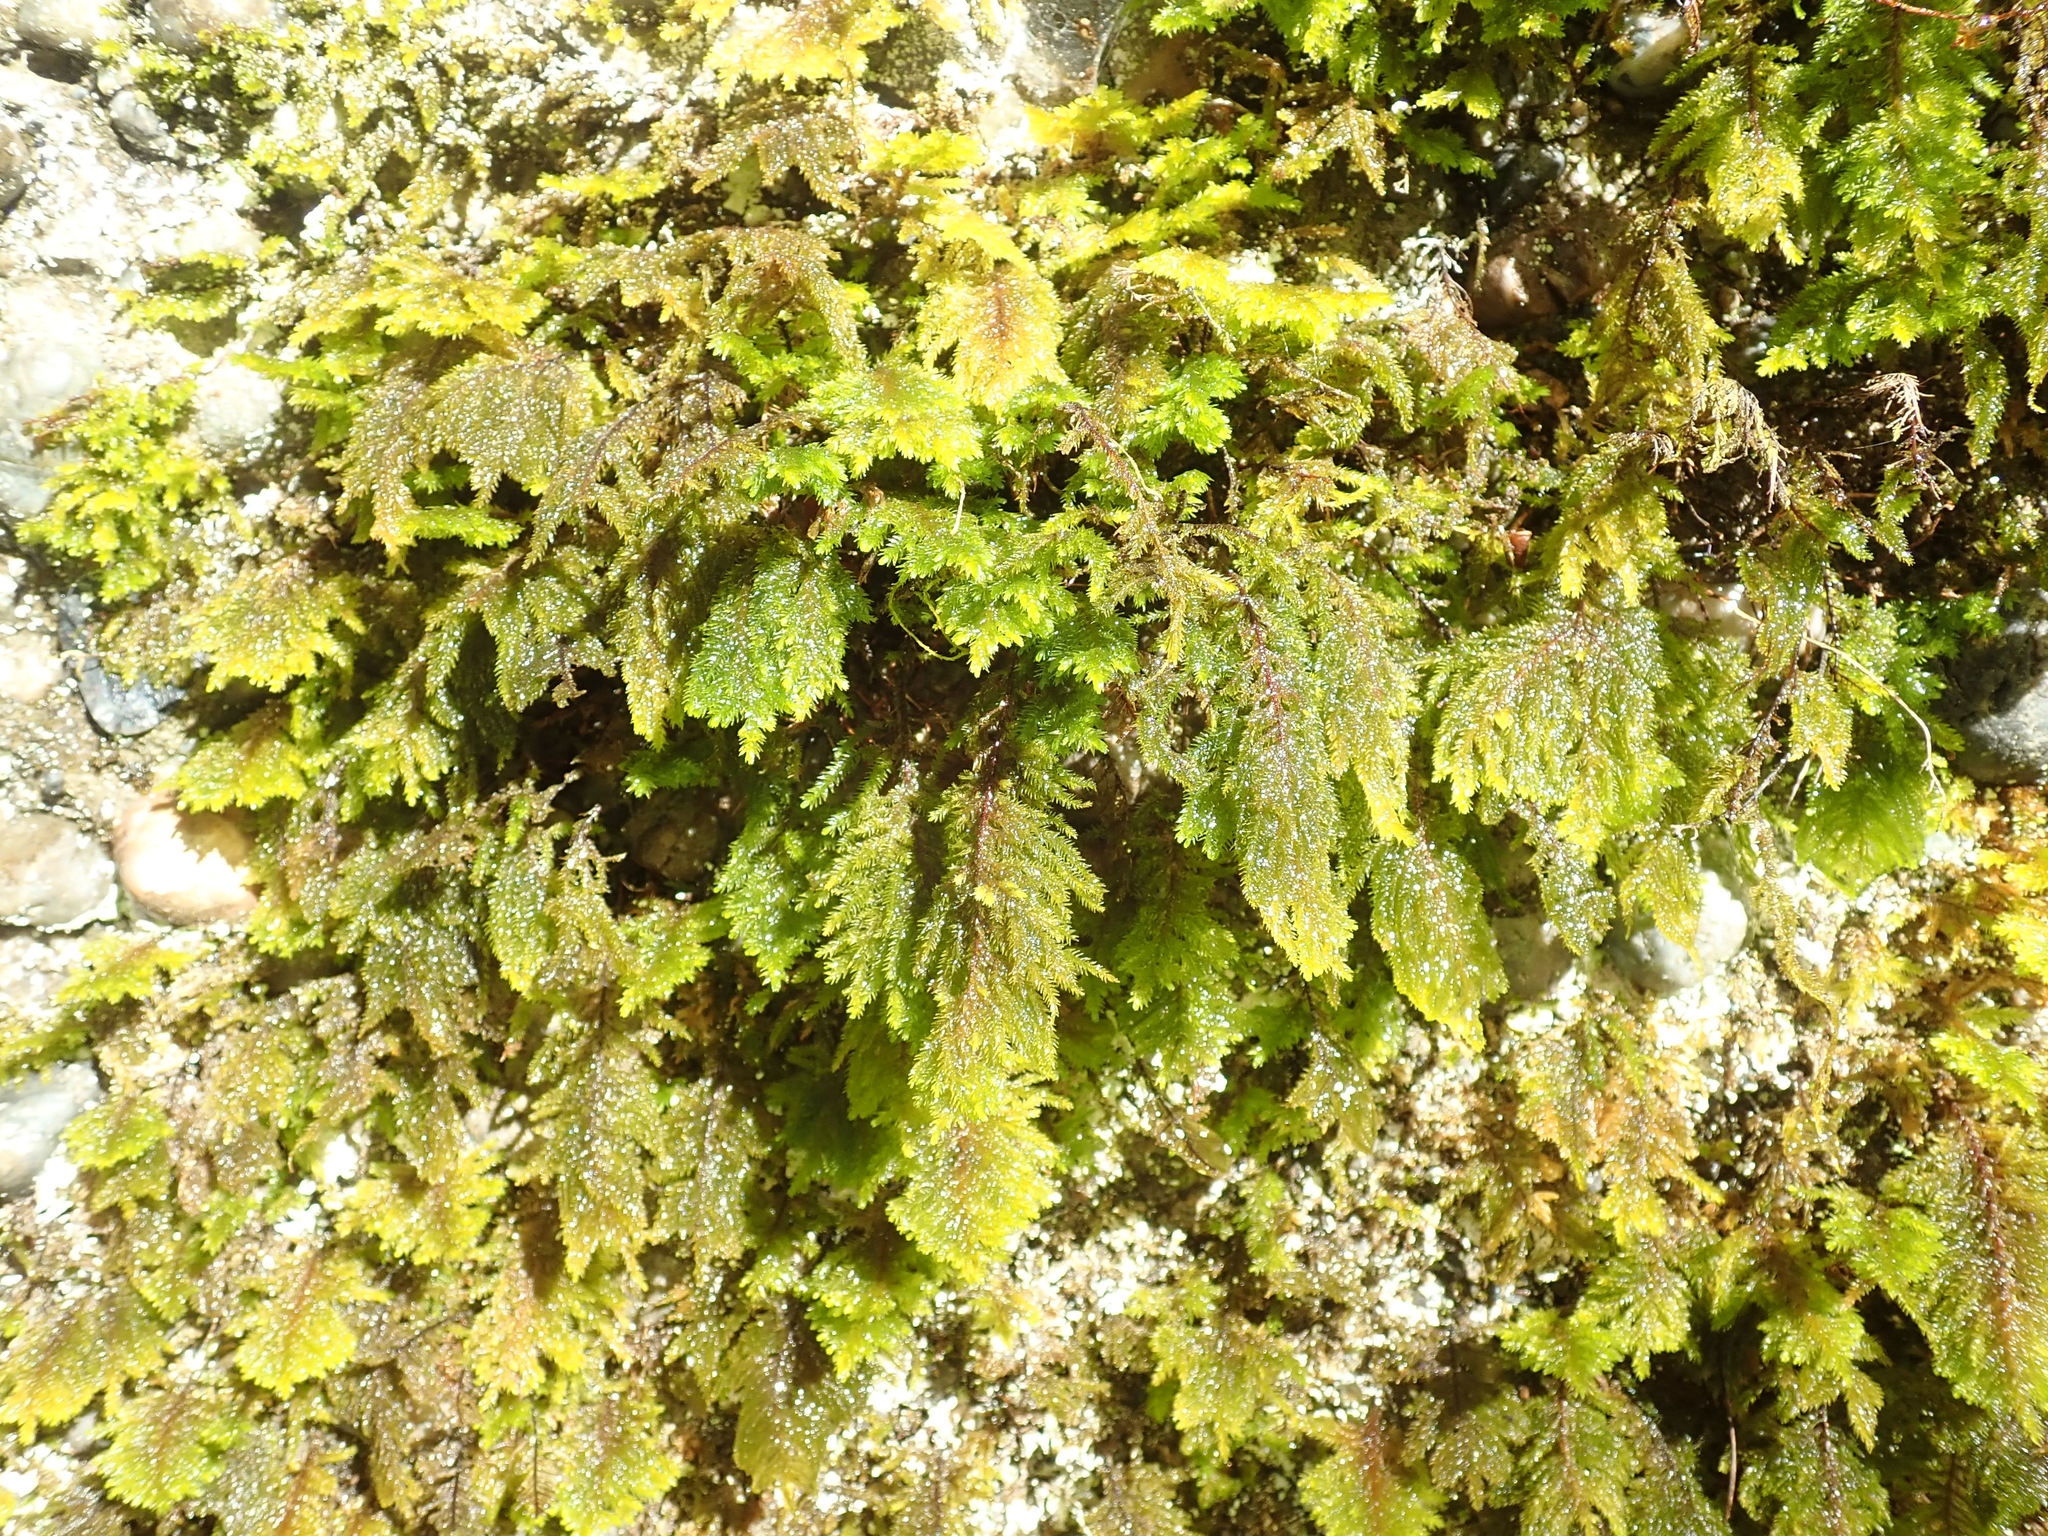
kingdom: Plantae
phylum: Bryophyta
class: Bryopsida
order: Hypnales
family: Cryphaeaceae
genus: Dendroalsia
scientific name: Dendroalsia abietina
